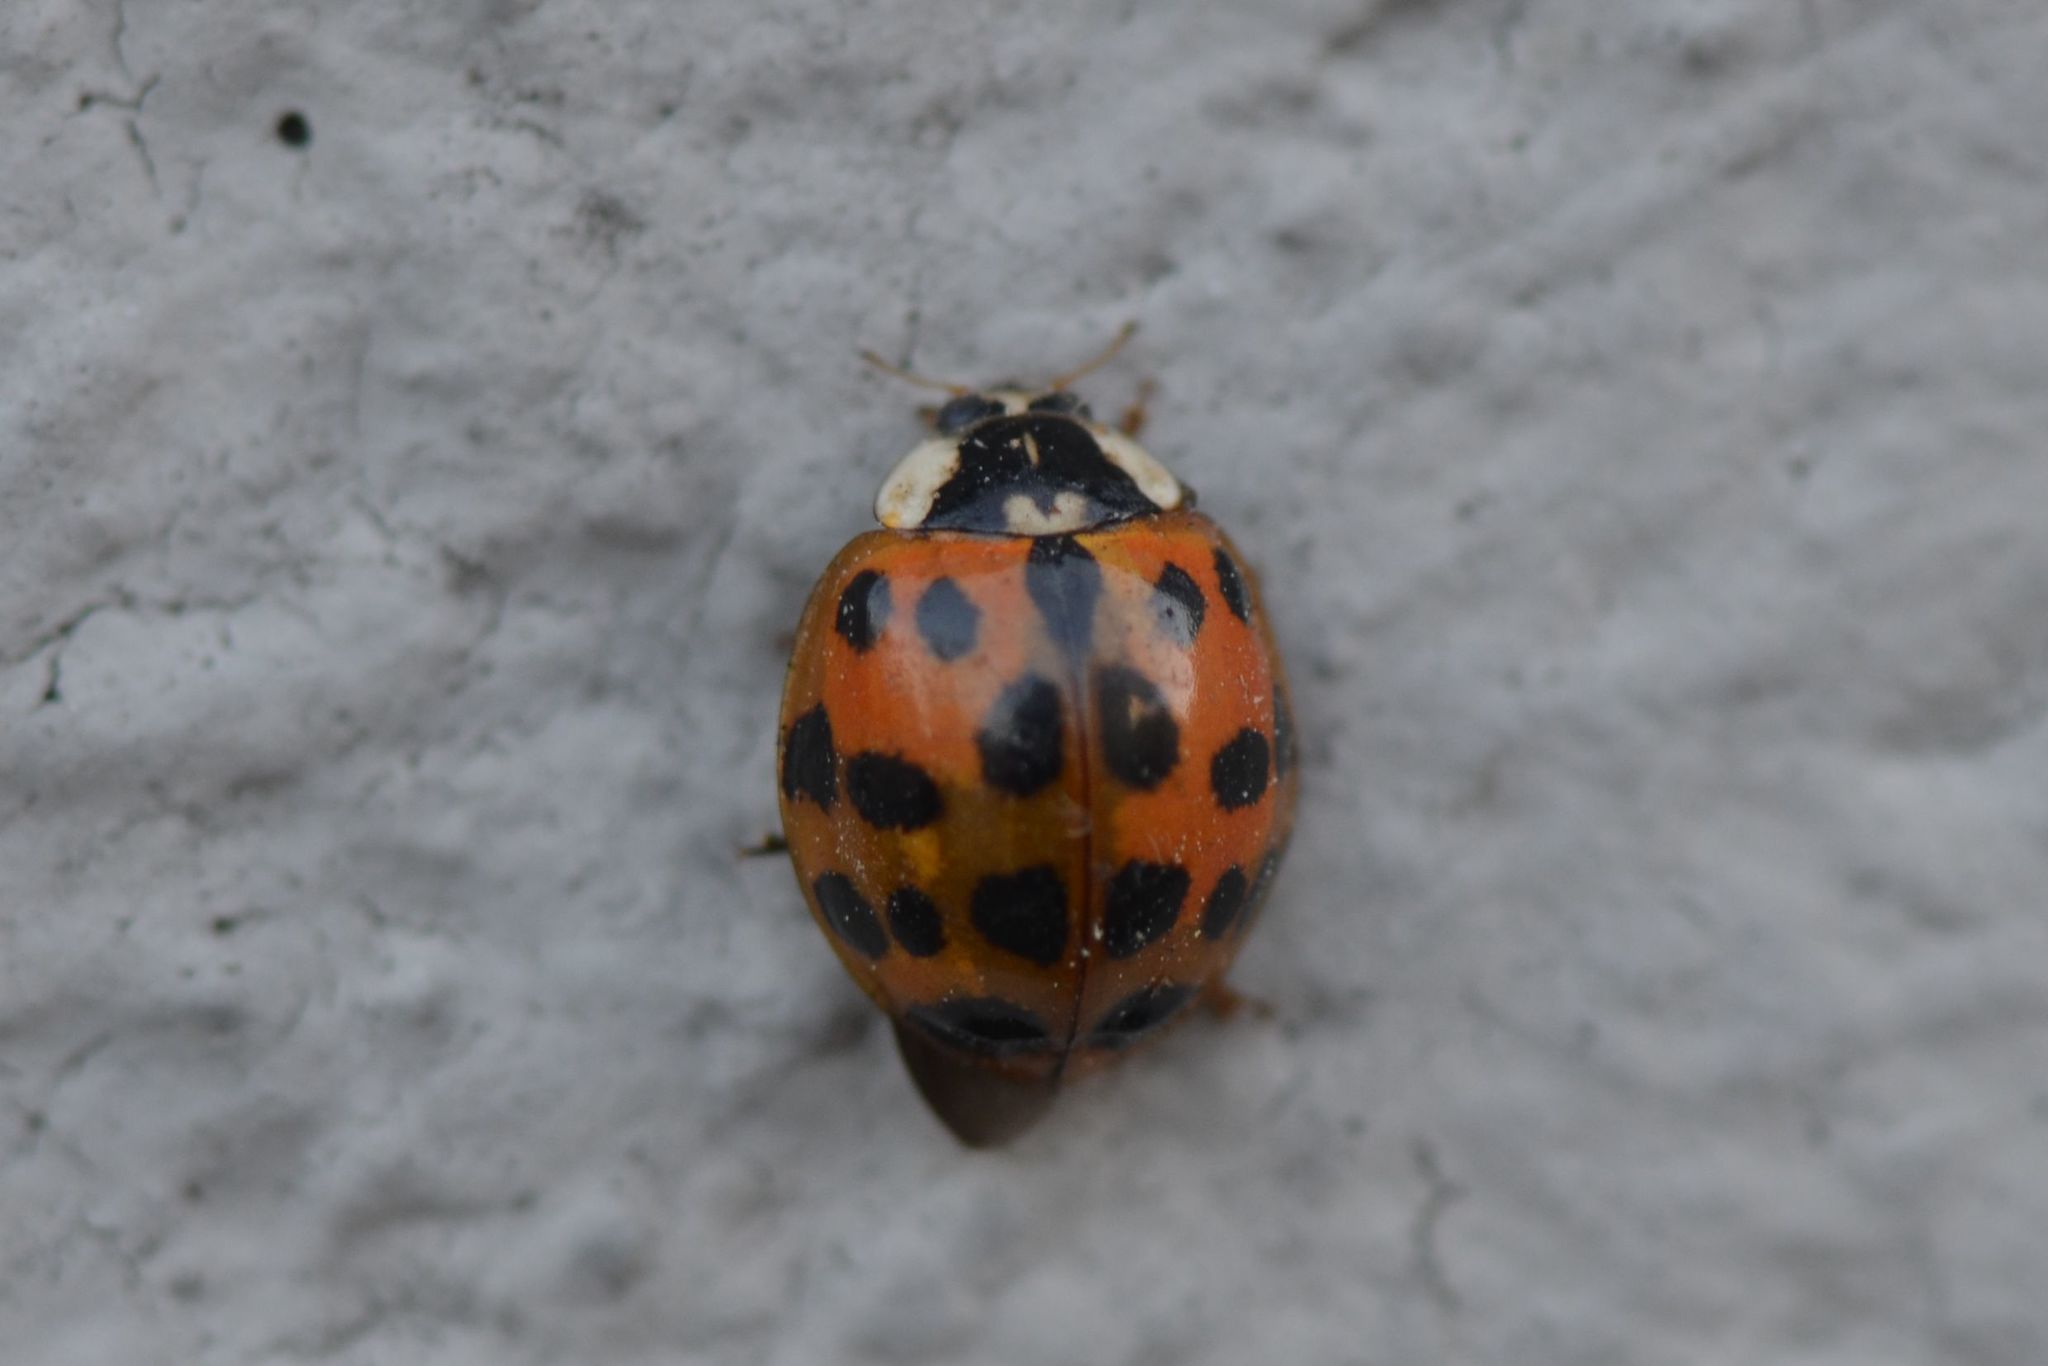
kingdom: Animalia
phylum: Arthropoda
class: Insecta
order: Coleoptera
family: Coccinellidae
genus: Harmonia
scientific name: Harmonia axyridis
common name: Harlequin ladybird
